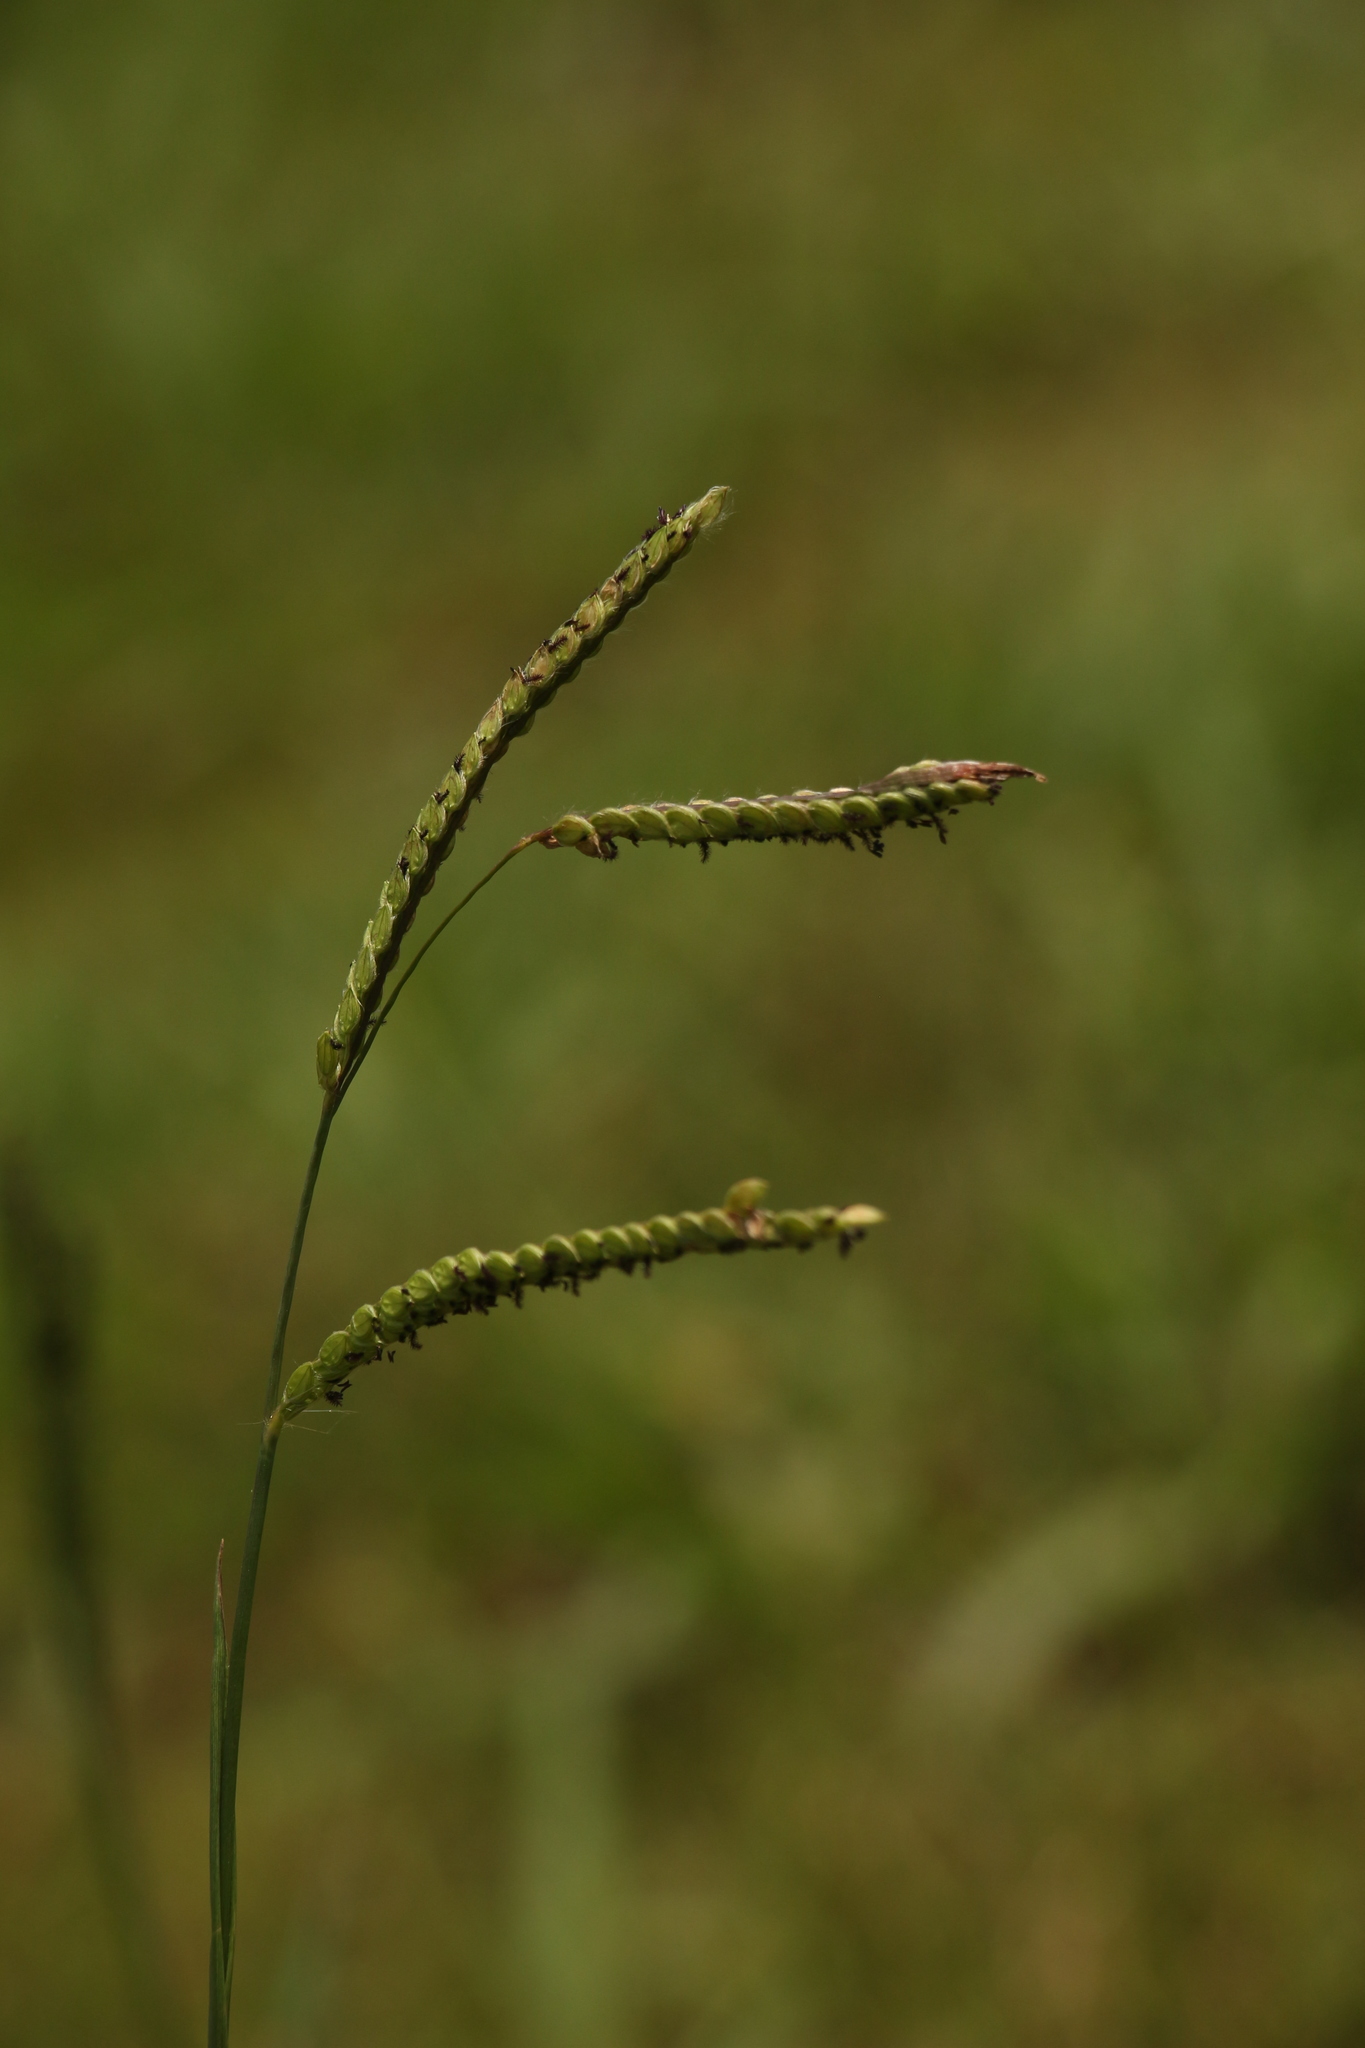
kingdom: Plantae
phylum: Tracheophyta
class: Liliopsida
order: Poales
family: Poaceae
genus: Paspalum
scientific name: Paspalum dilatatum
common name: Dallisgrass
